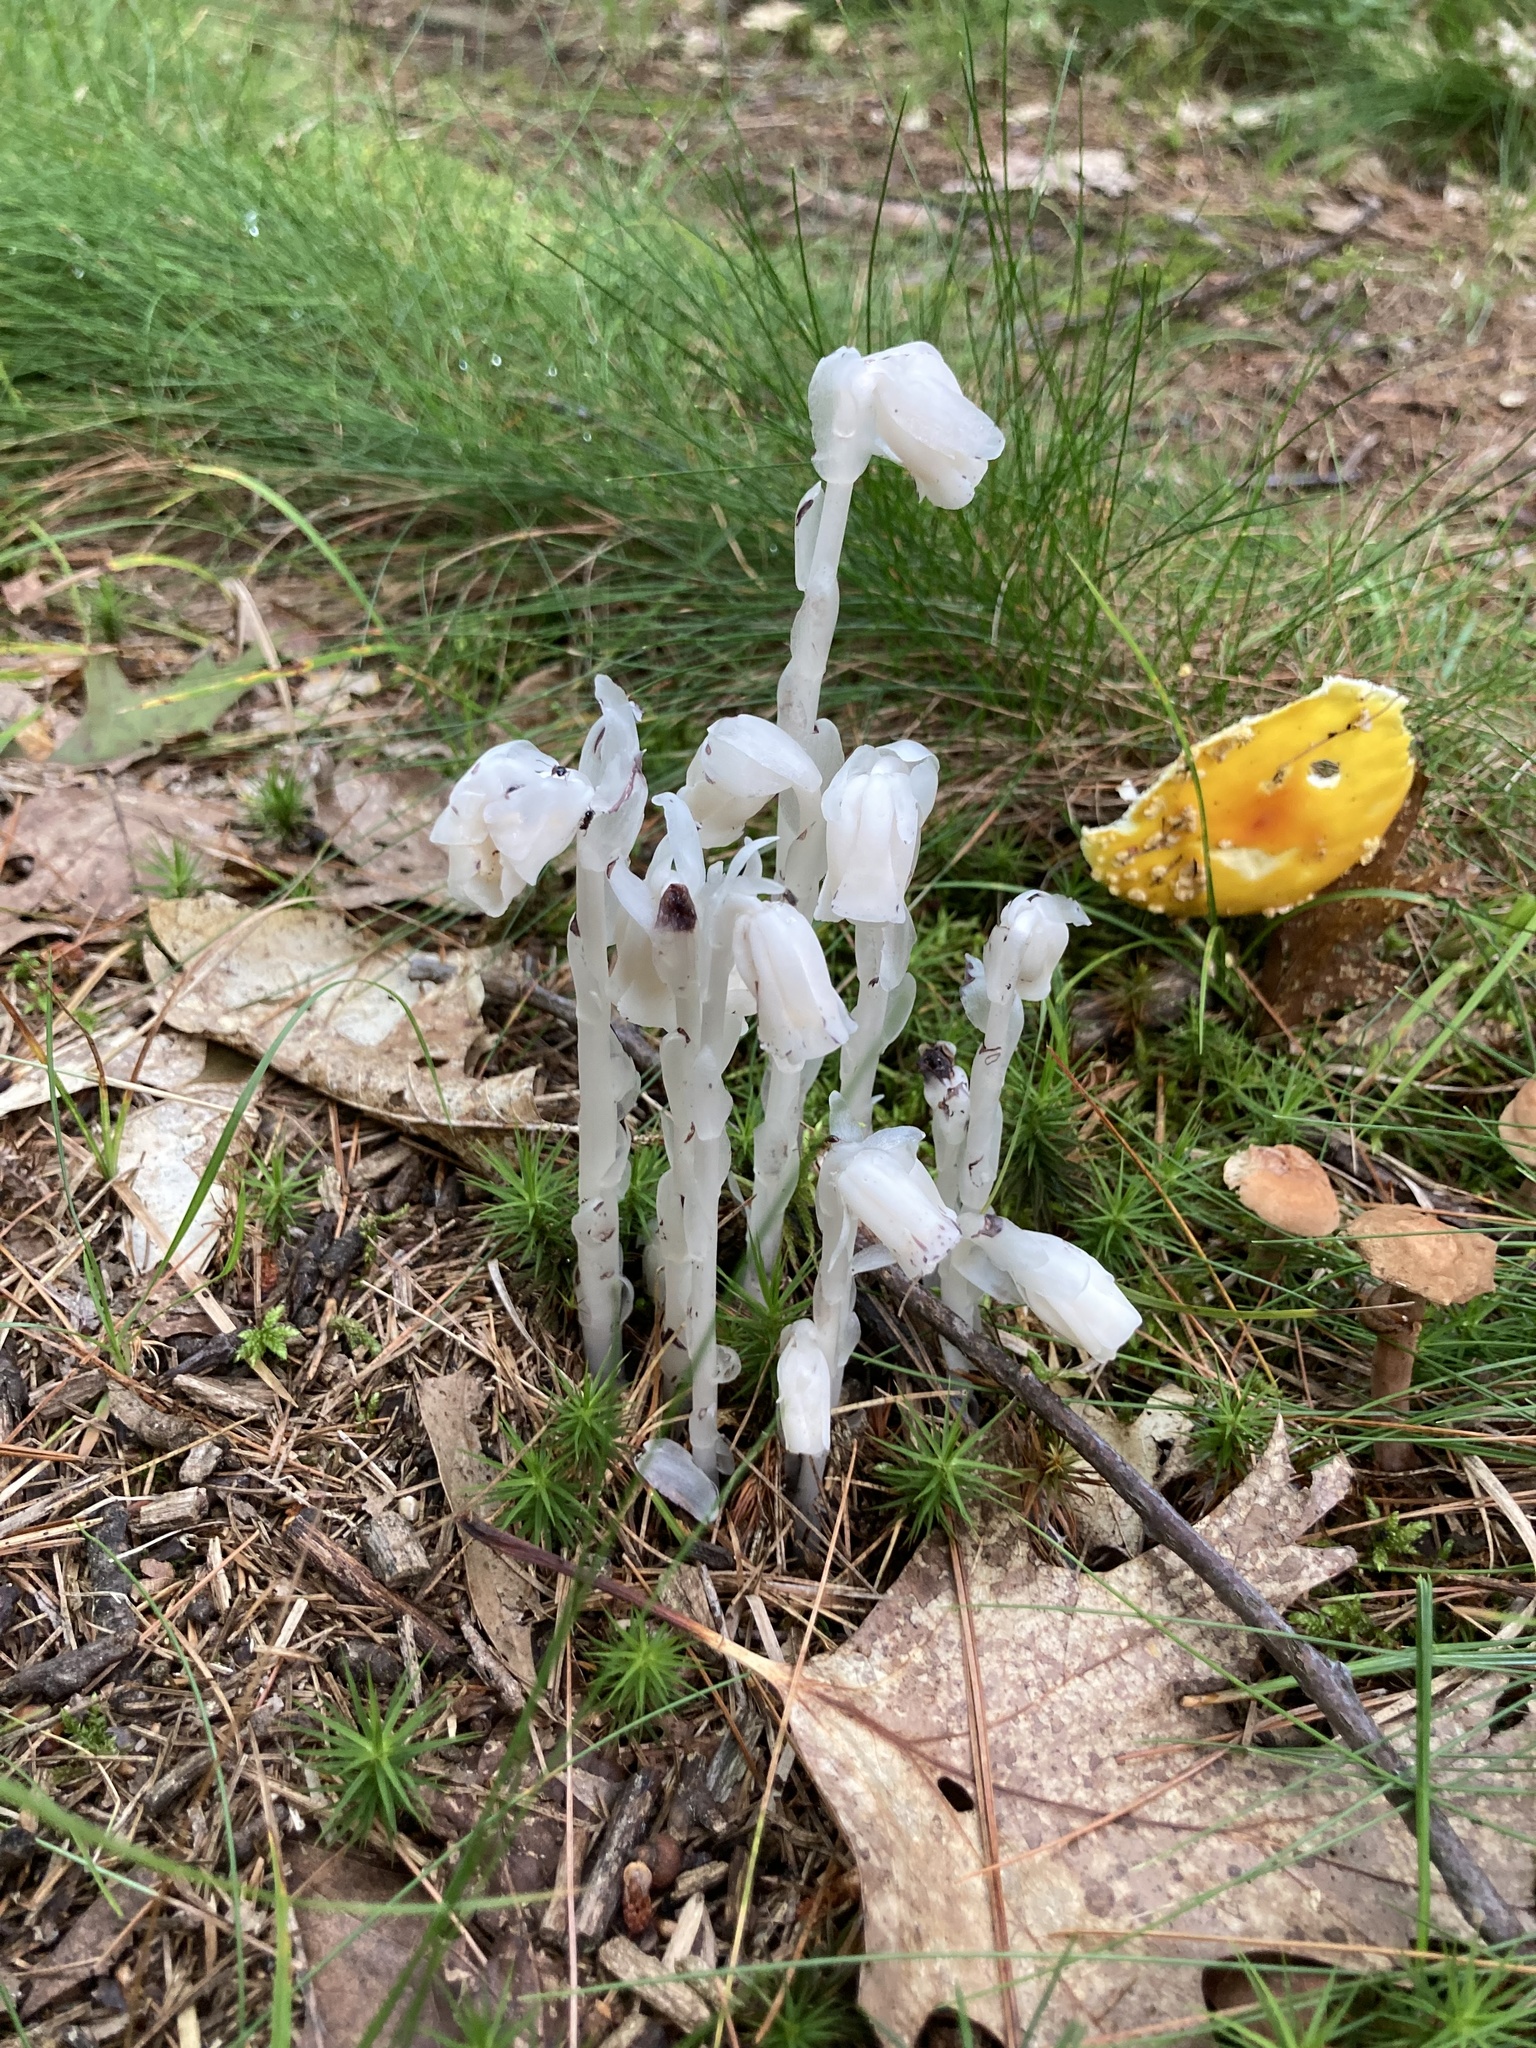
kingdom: Plantae
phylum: Tracheophyta
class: Magnoliopsida
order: Ericales
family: Ericaceae
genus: Monotropa
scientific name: Monotropa uniflora
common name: Convulsion root
